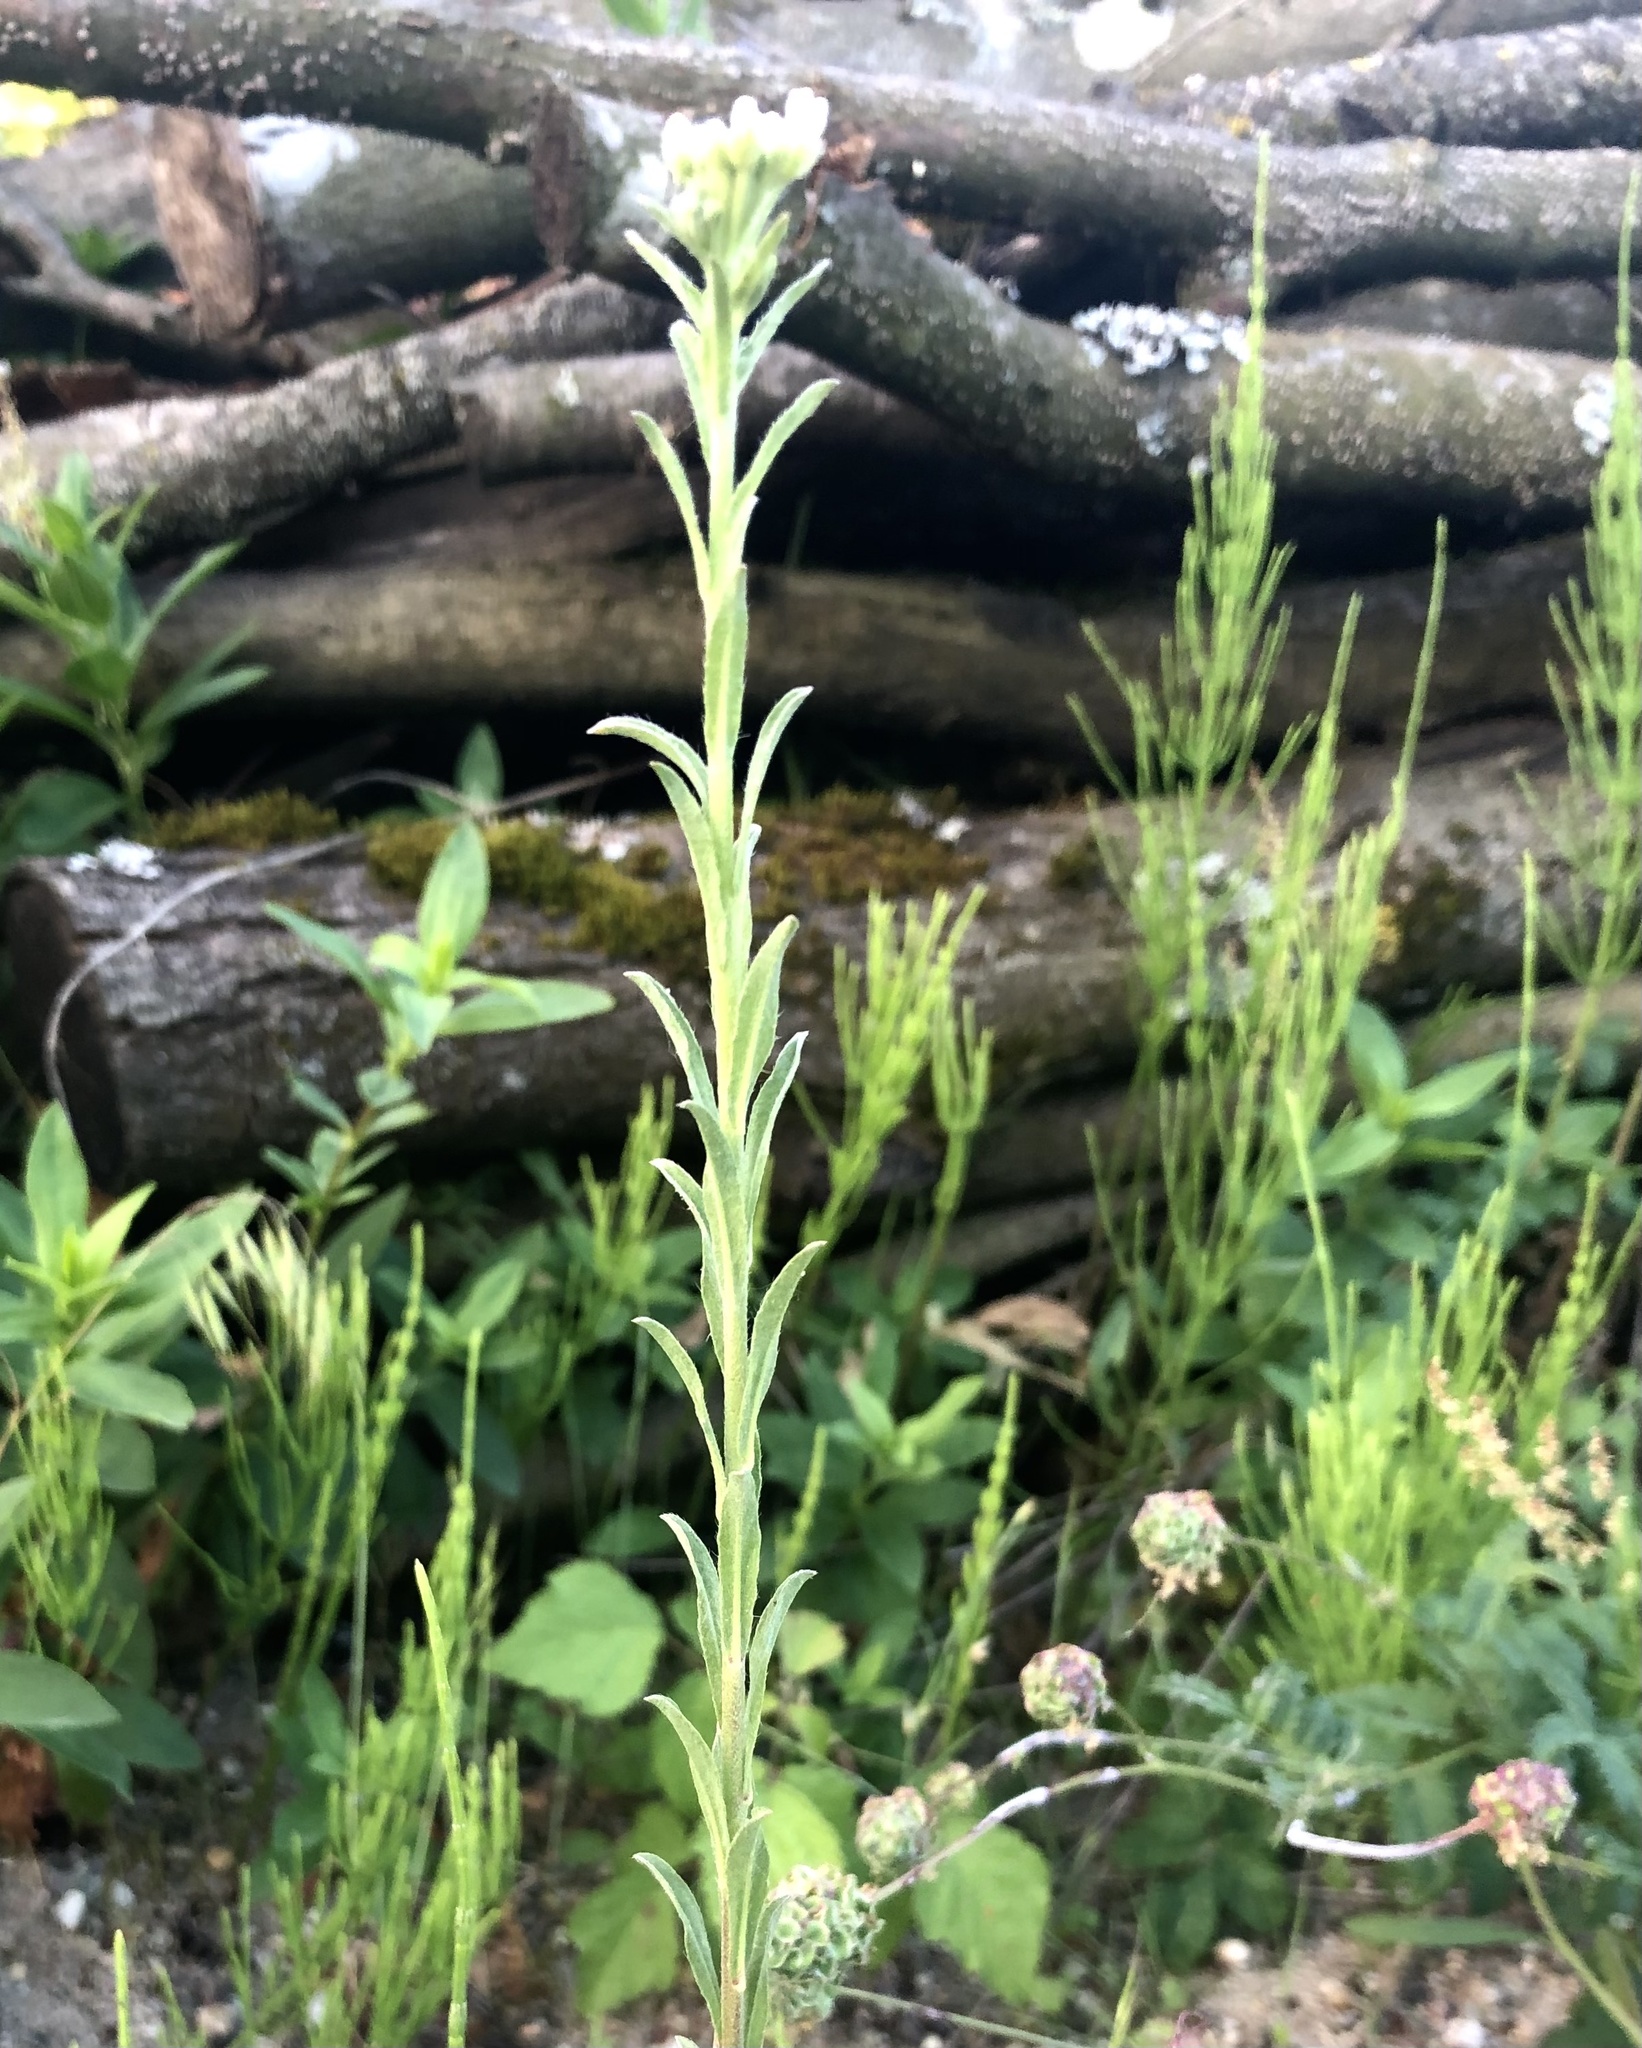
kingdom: Plantae
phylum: Tracheophyta
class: Magnoliopsida
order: Brassicales
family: Brassicaceae
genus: Berteroa
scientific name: Berteroa incana
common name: Hoary alison
